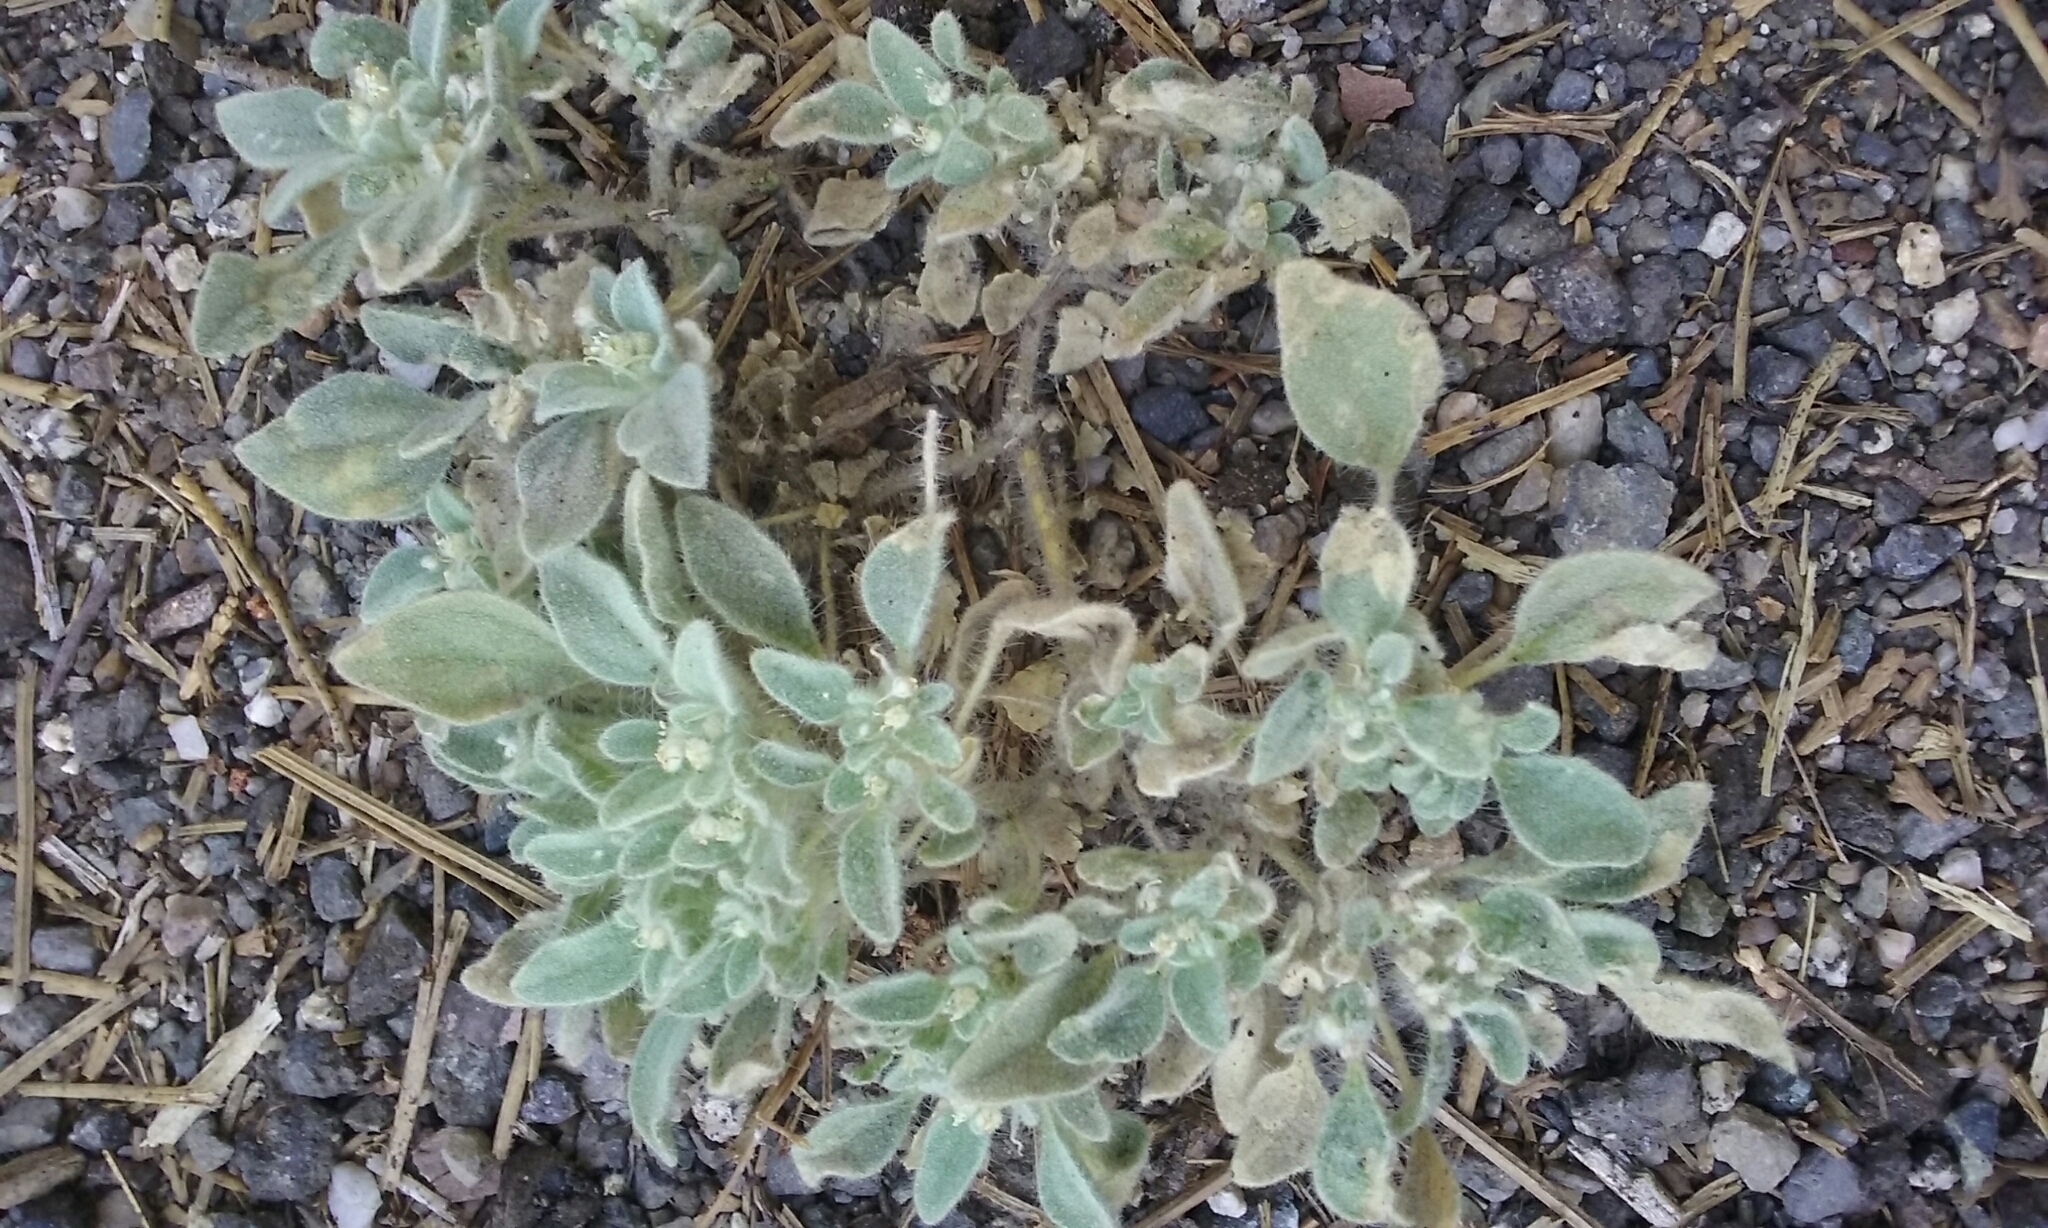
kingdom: Plantae
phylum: Tracheophyta
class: Magnoliopsida
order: Malpighiales
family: Euphorbiaceae
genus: Croton
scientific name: Croton setiger
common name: Dove weed
